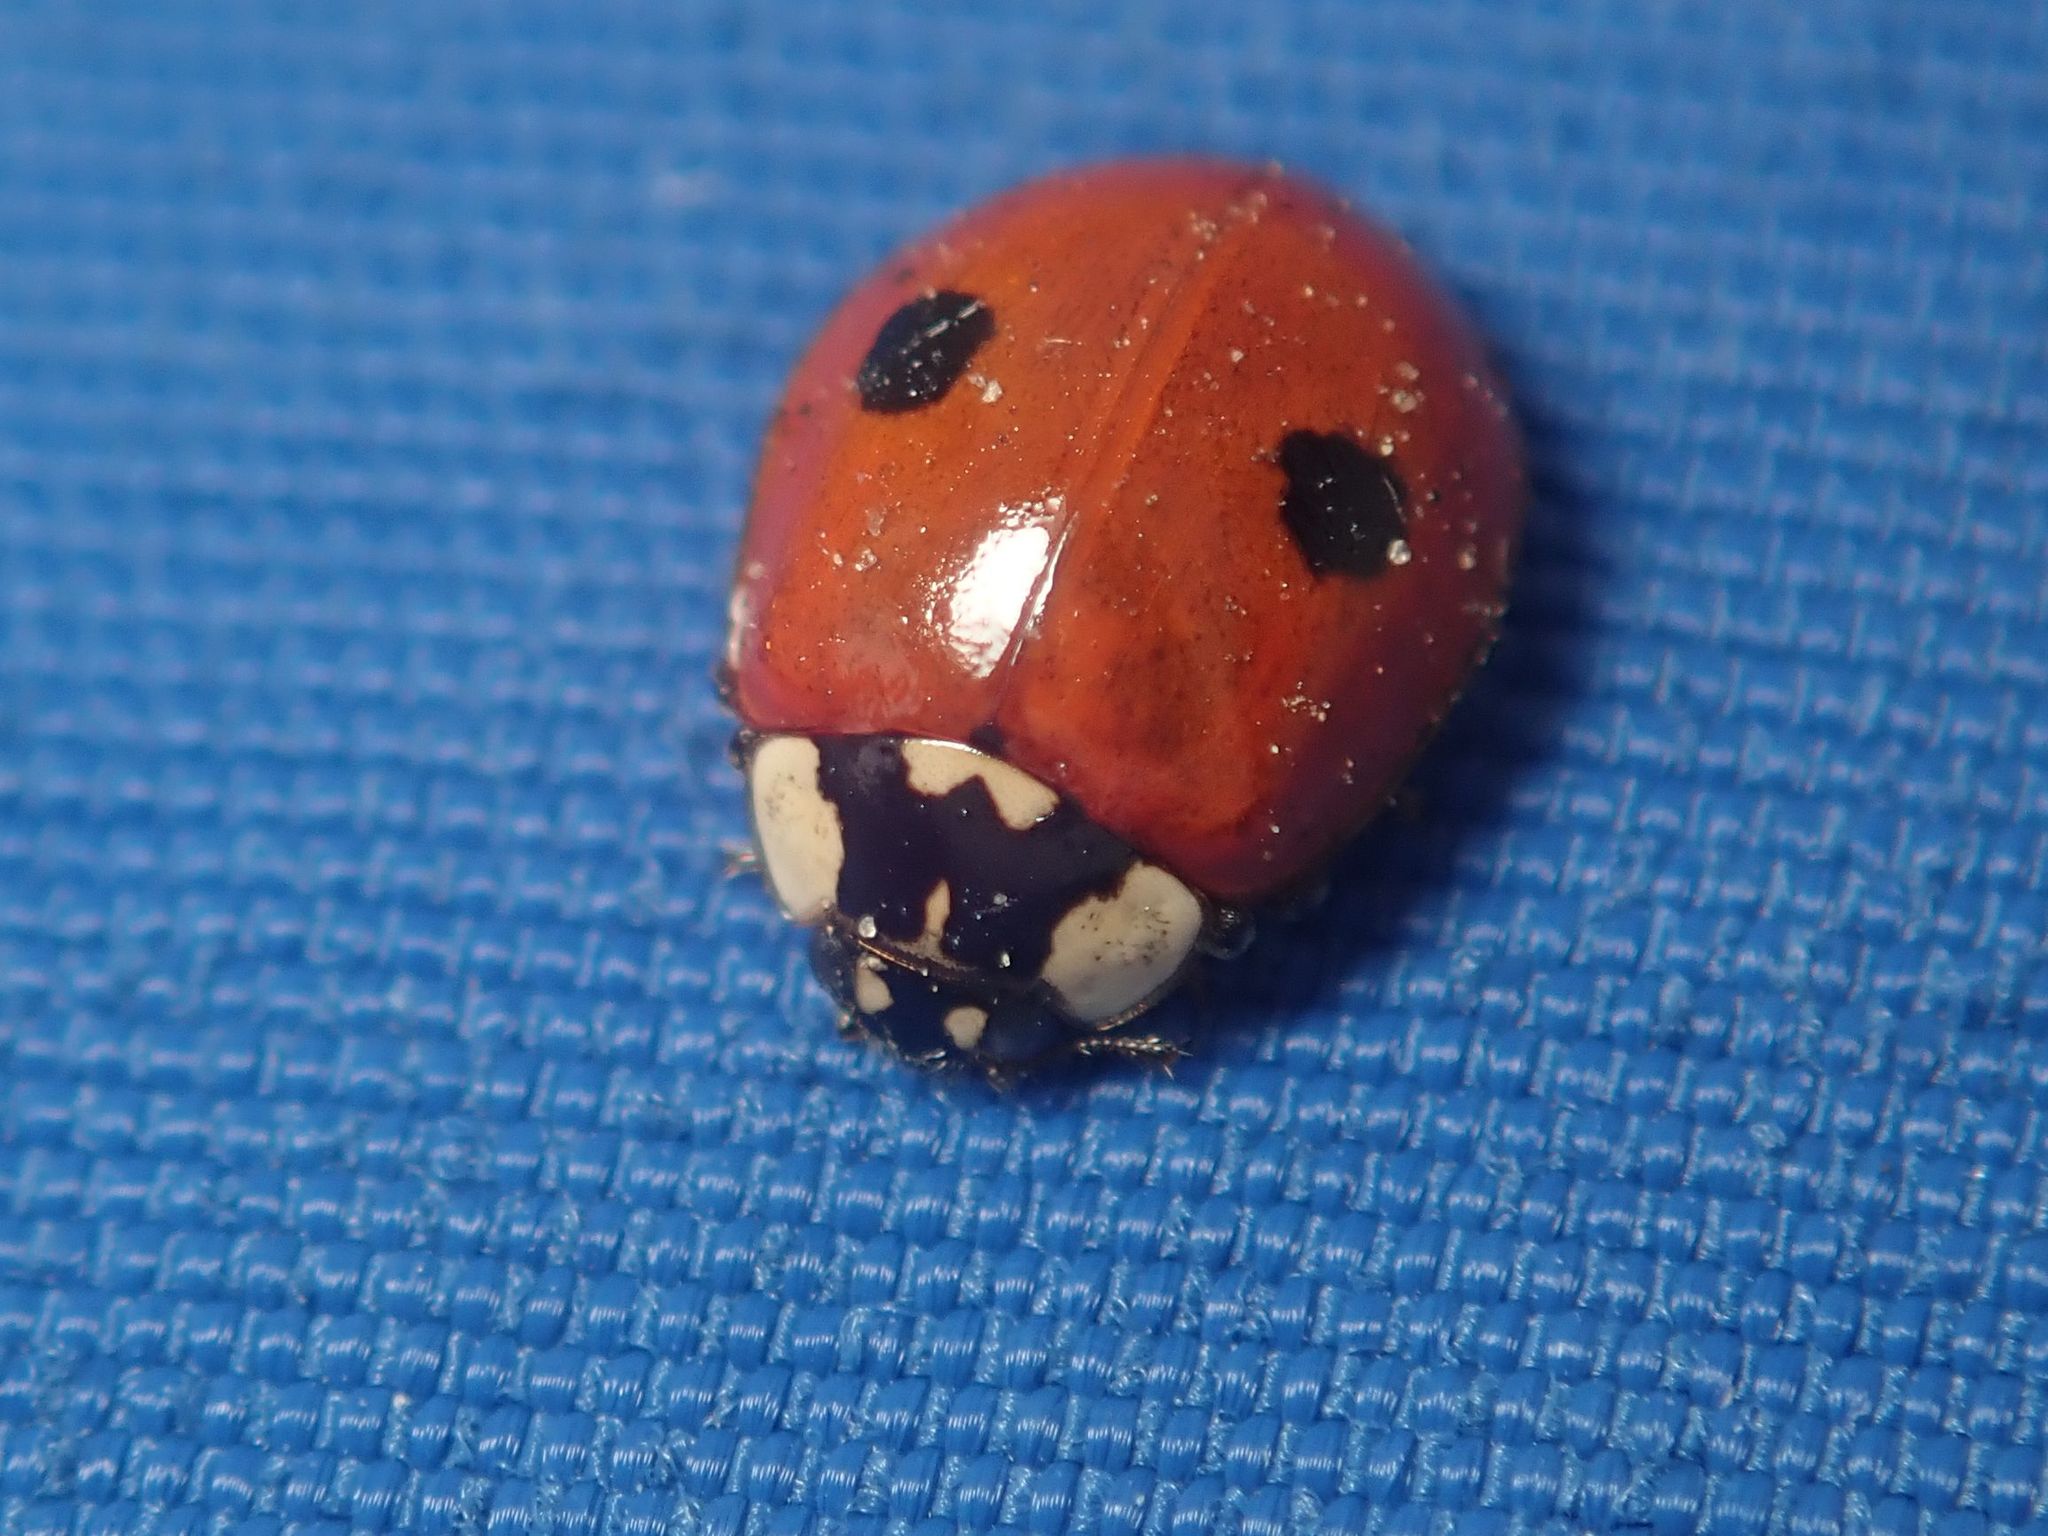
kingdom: Animalia
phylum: Arthropoda
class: Insecta
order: Coleoptera
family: Coccinellidae
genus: Adalia
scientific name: Adalia bipunctata
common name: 2-spot ladybird
